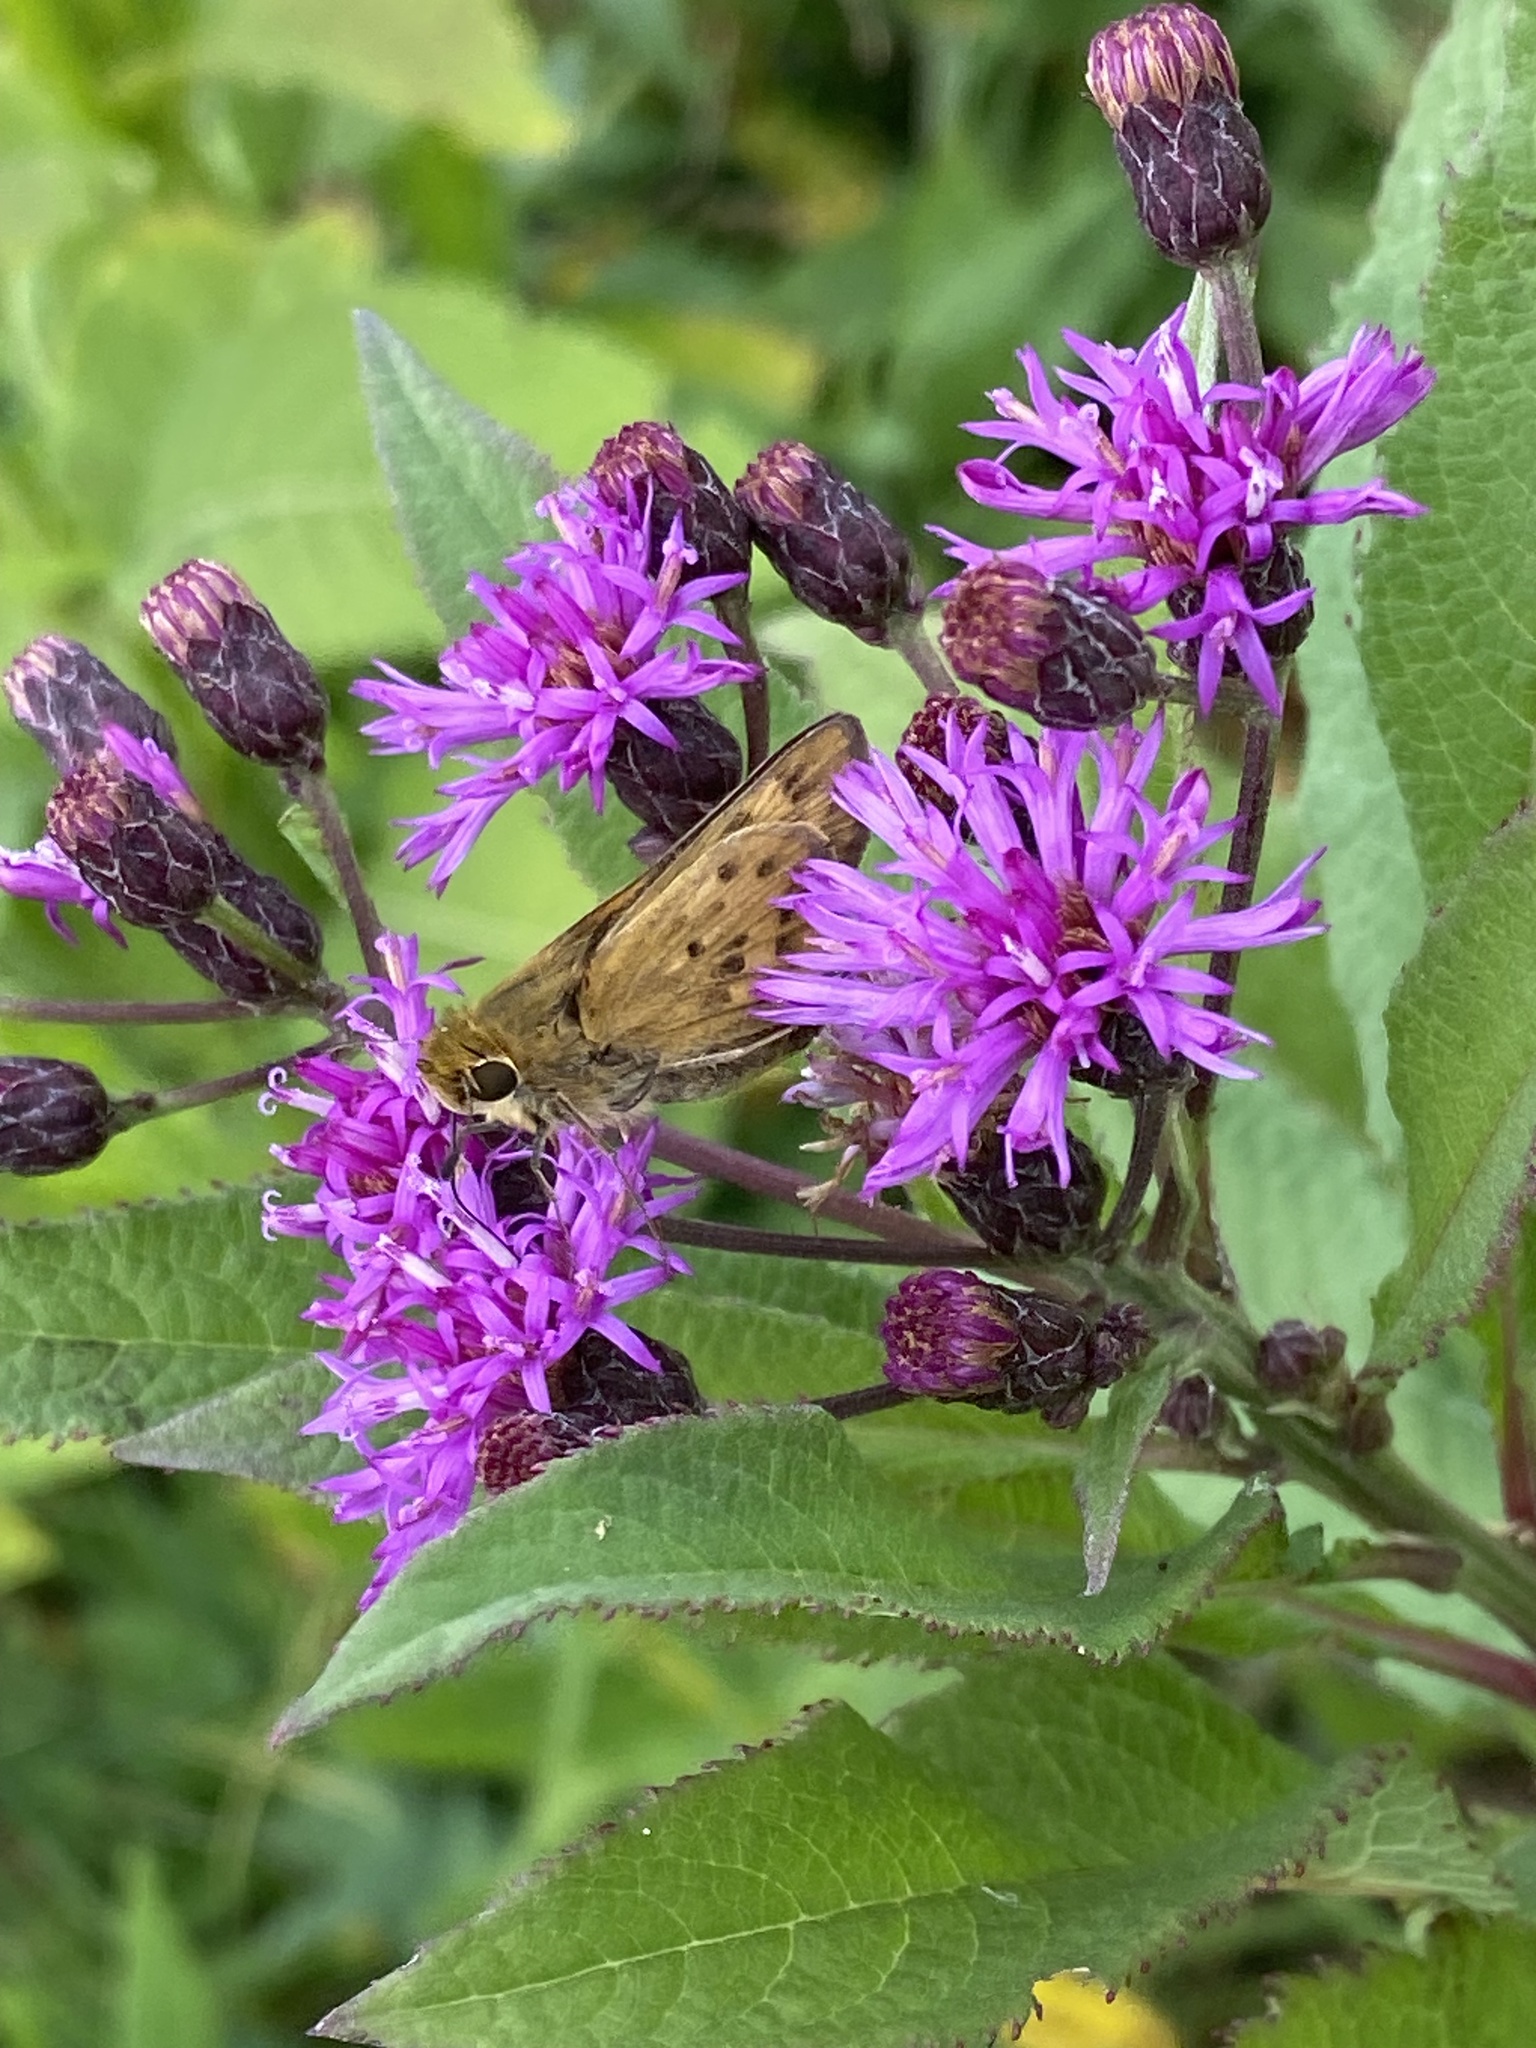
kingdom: Animalia
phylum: Arthropoda
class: Insecta
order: Lepidoptera
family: Hesperiidae
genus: Hylephila
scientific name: Hylephila phyleus
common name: Fiery skipper
